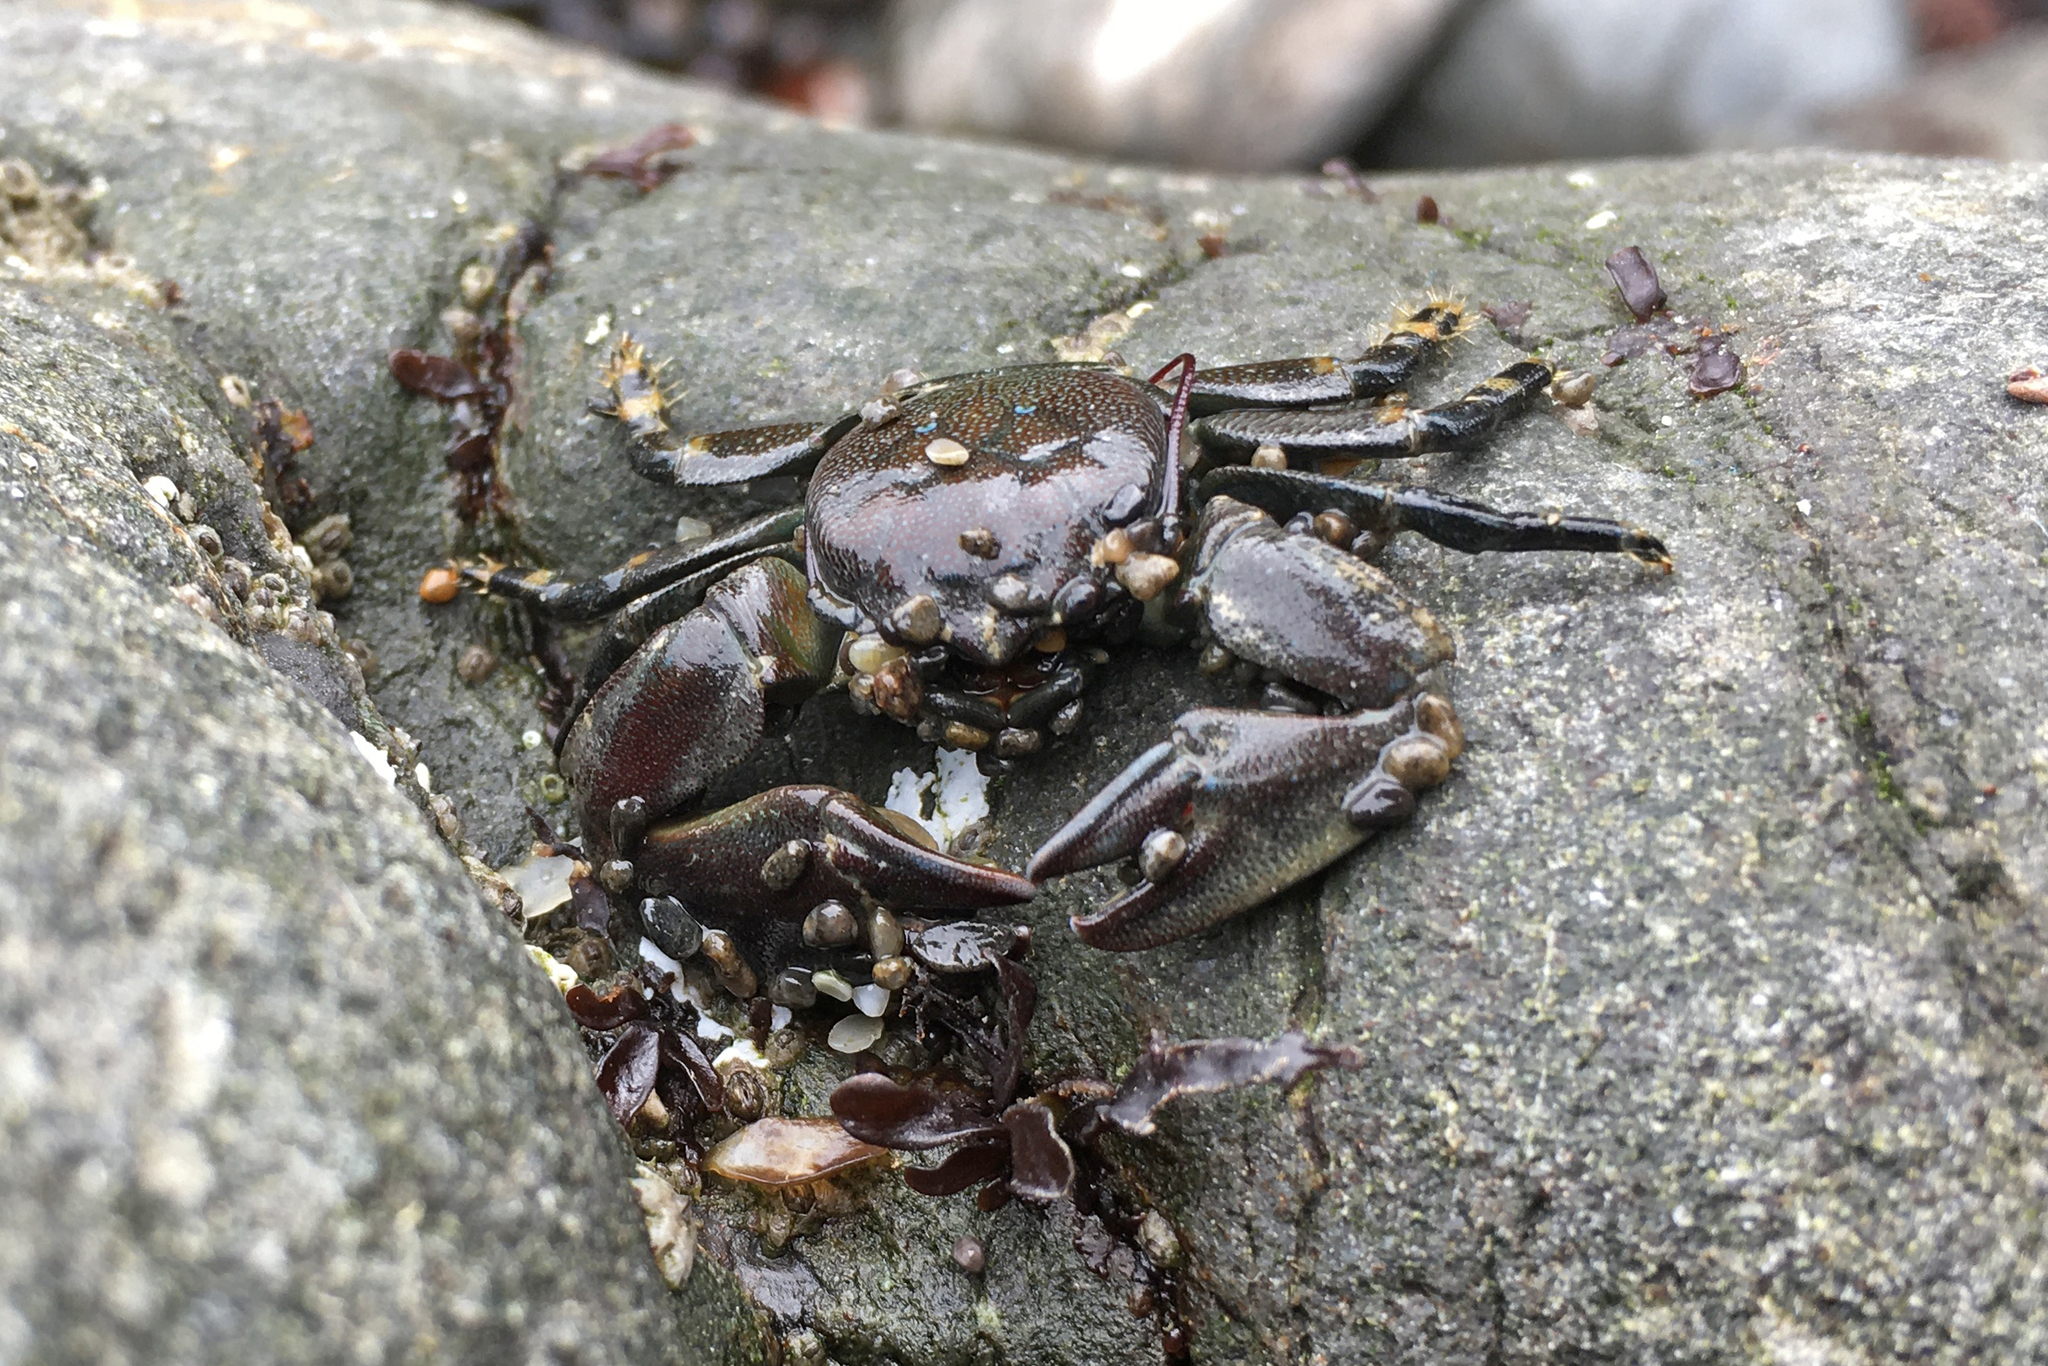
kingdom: Animalia
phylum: Arthropoda
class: Malacostraca
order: Decapoda
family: Porcellanidae
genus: Petrolisthes
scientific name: Petrolisthes cinctipes
